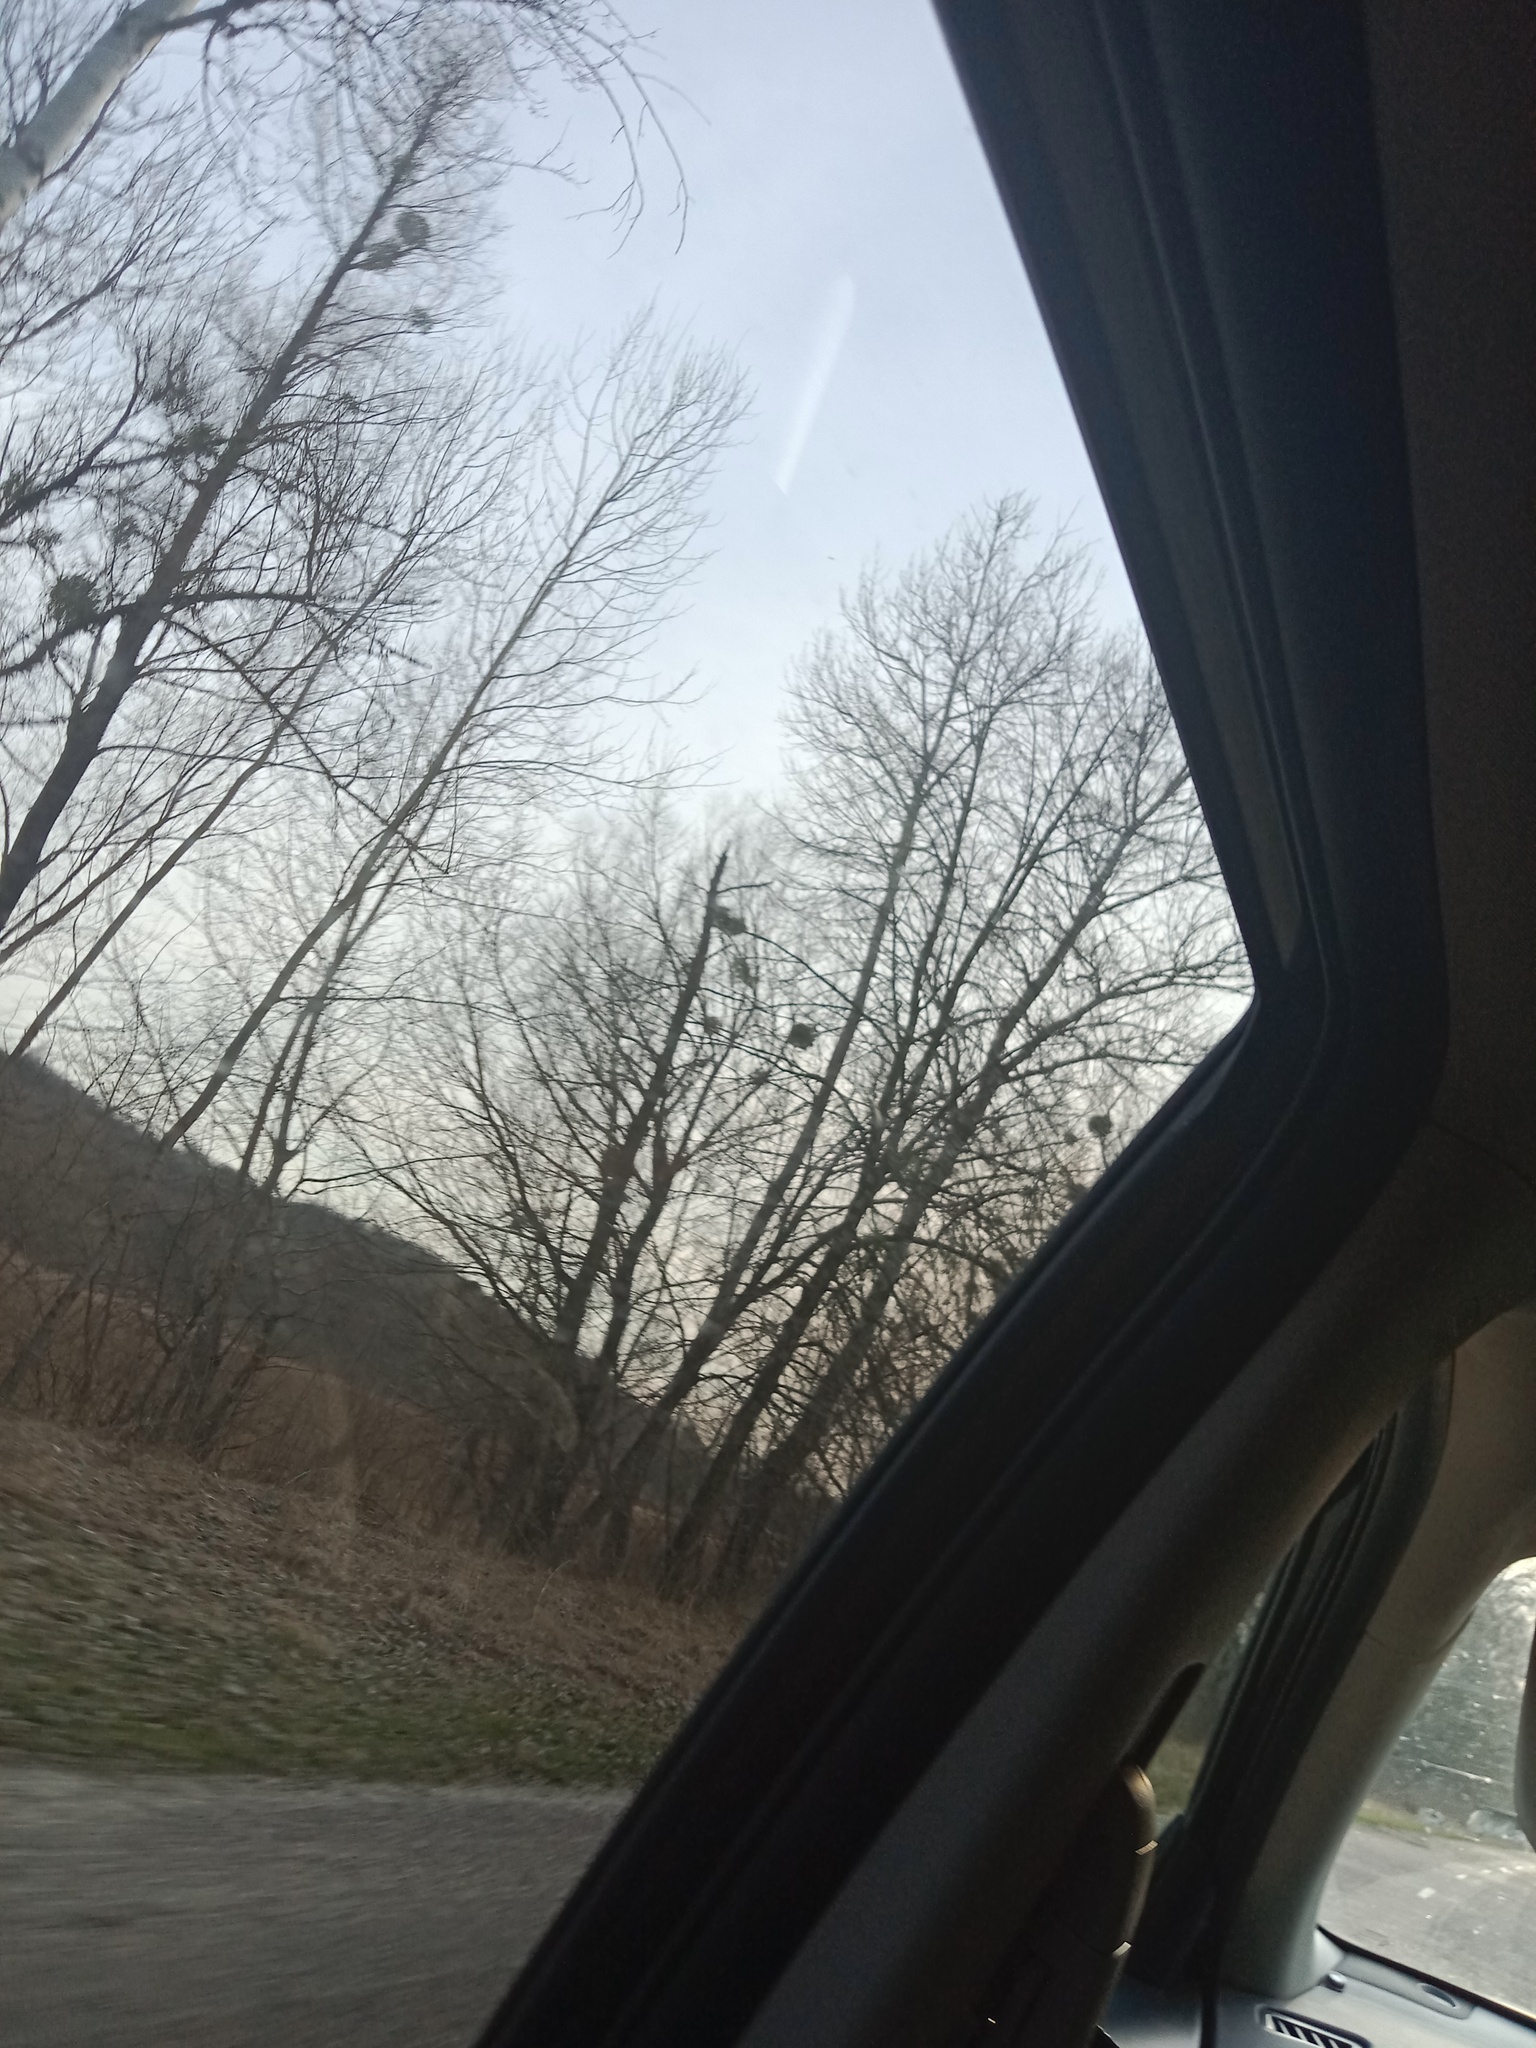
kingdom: Plantae
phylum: Tracheophyta
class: Magnoliopsida
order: Santalales
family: Viscaceae
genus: Viscum
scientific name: Viscum album
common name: Mistletoe
